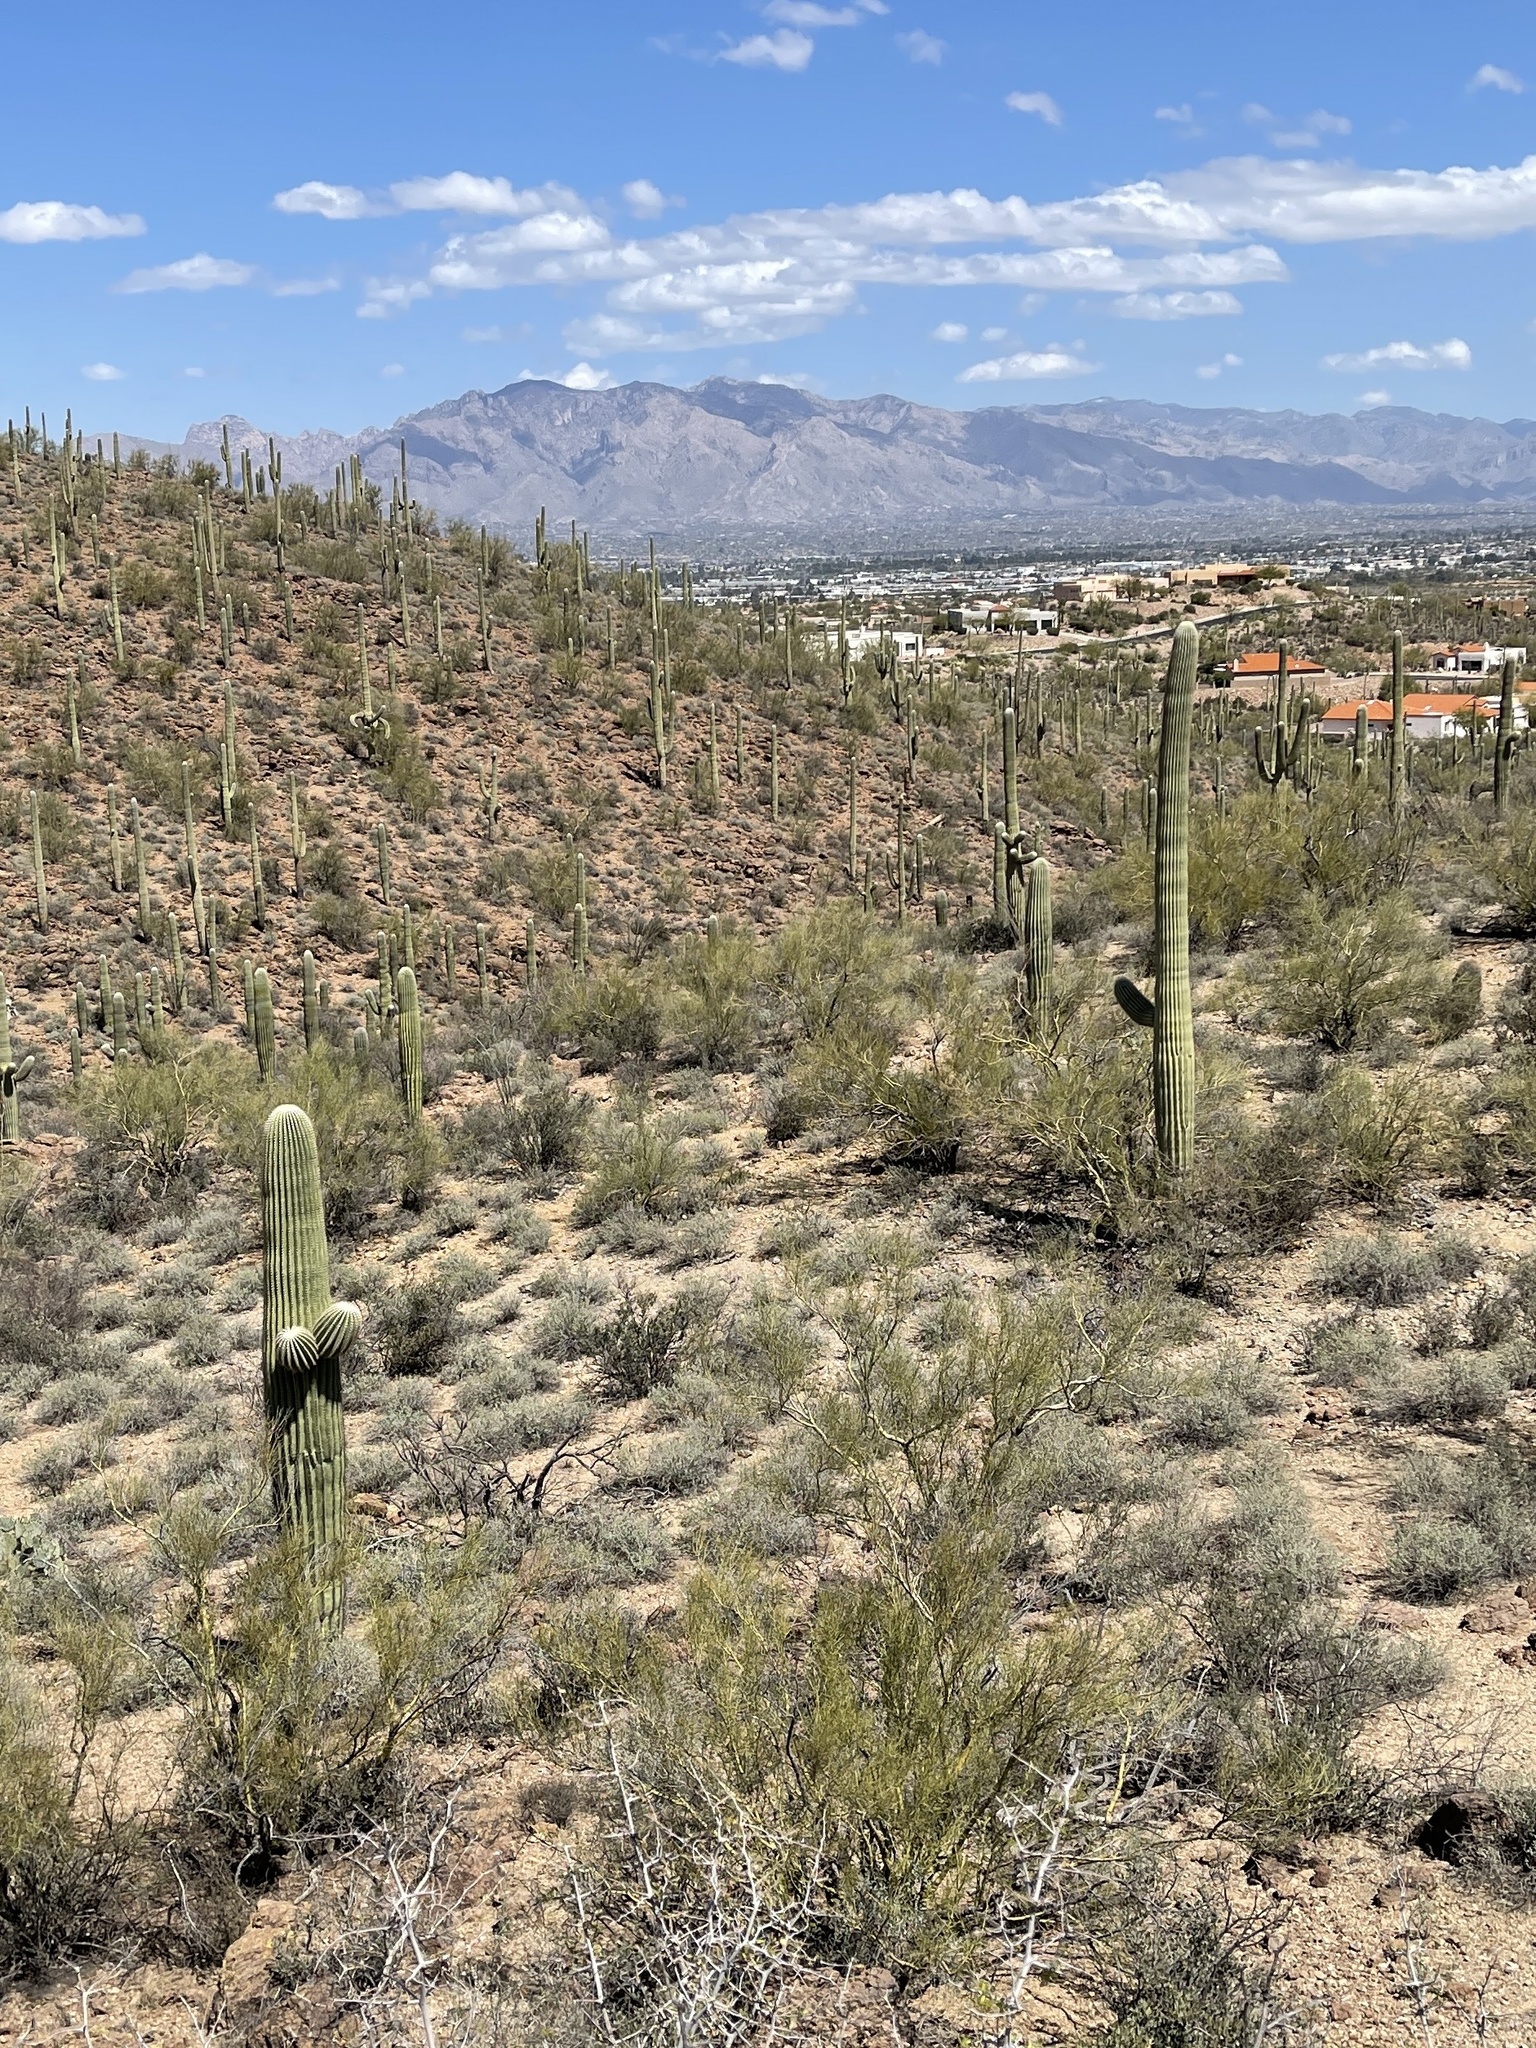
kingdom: Plantae
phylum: Tracheophyta
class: Magnoliopsida
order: Caryophyllales
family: Cactaceae
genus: Carnegiea
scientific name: Carnegiea gigantea
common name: Saguaro
